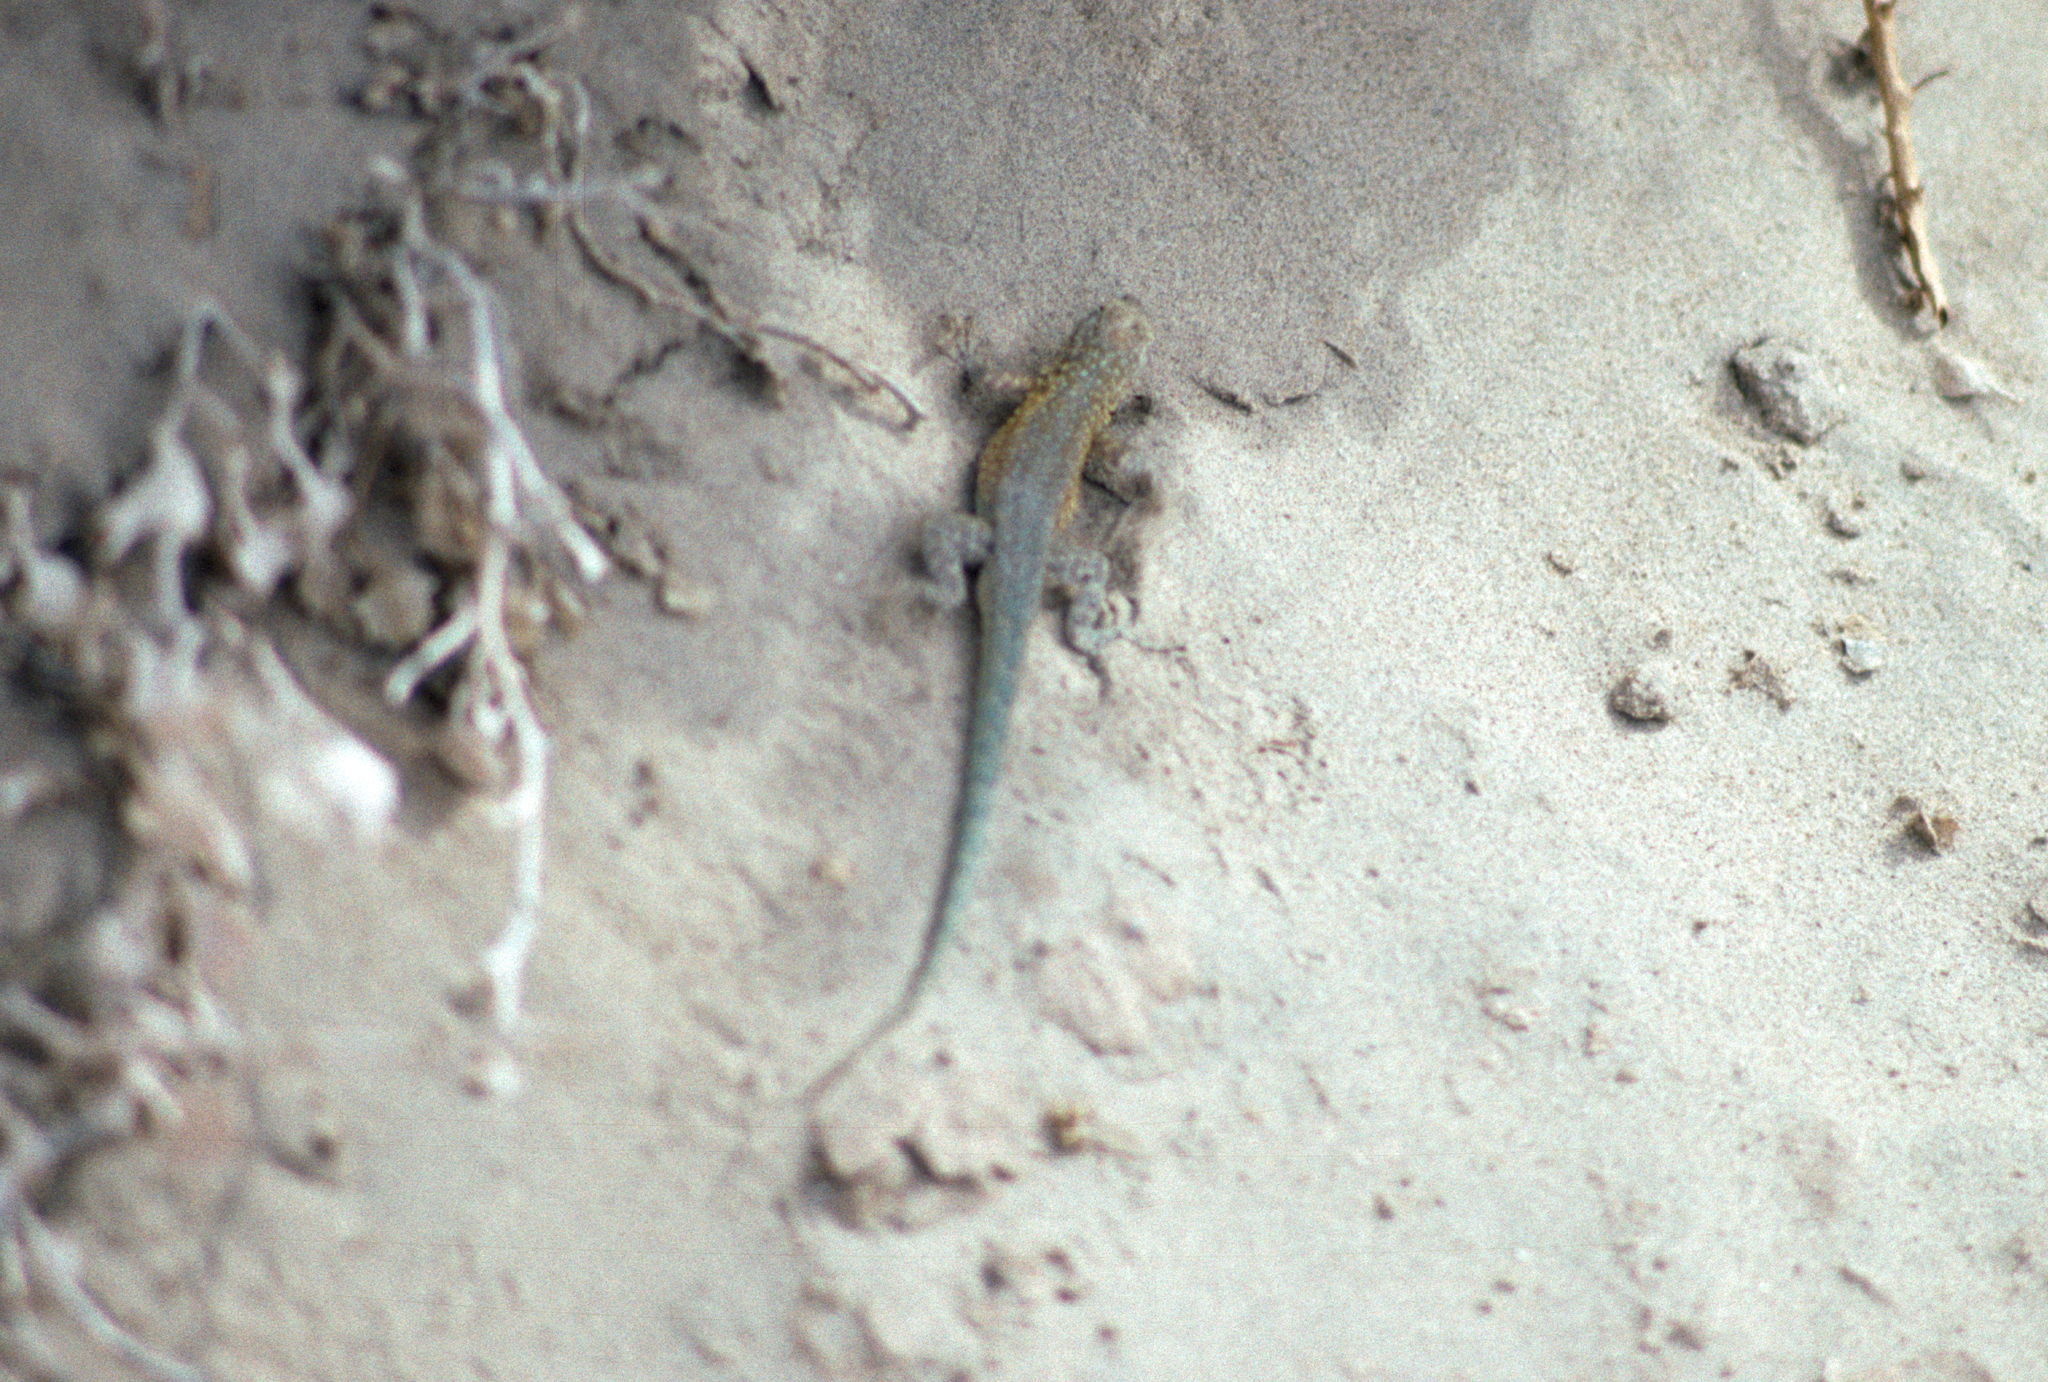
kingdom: Animalia
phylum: Chordata
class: Squamata
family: Phrynosomatidae
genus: Uta
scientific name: Uta stansburiana
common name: Side-blotched lizard
